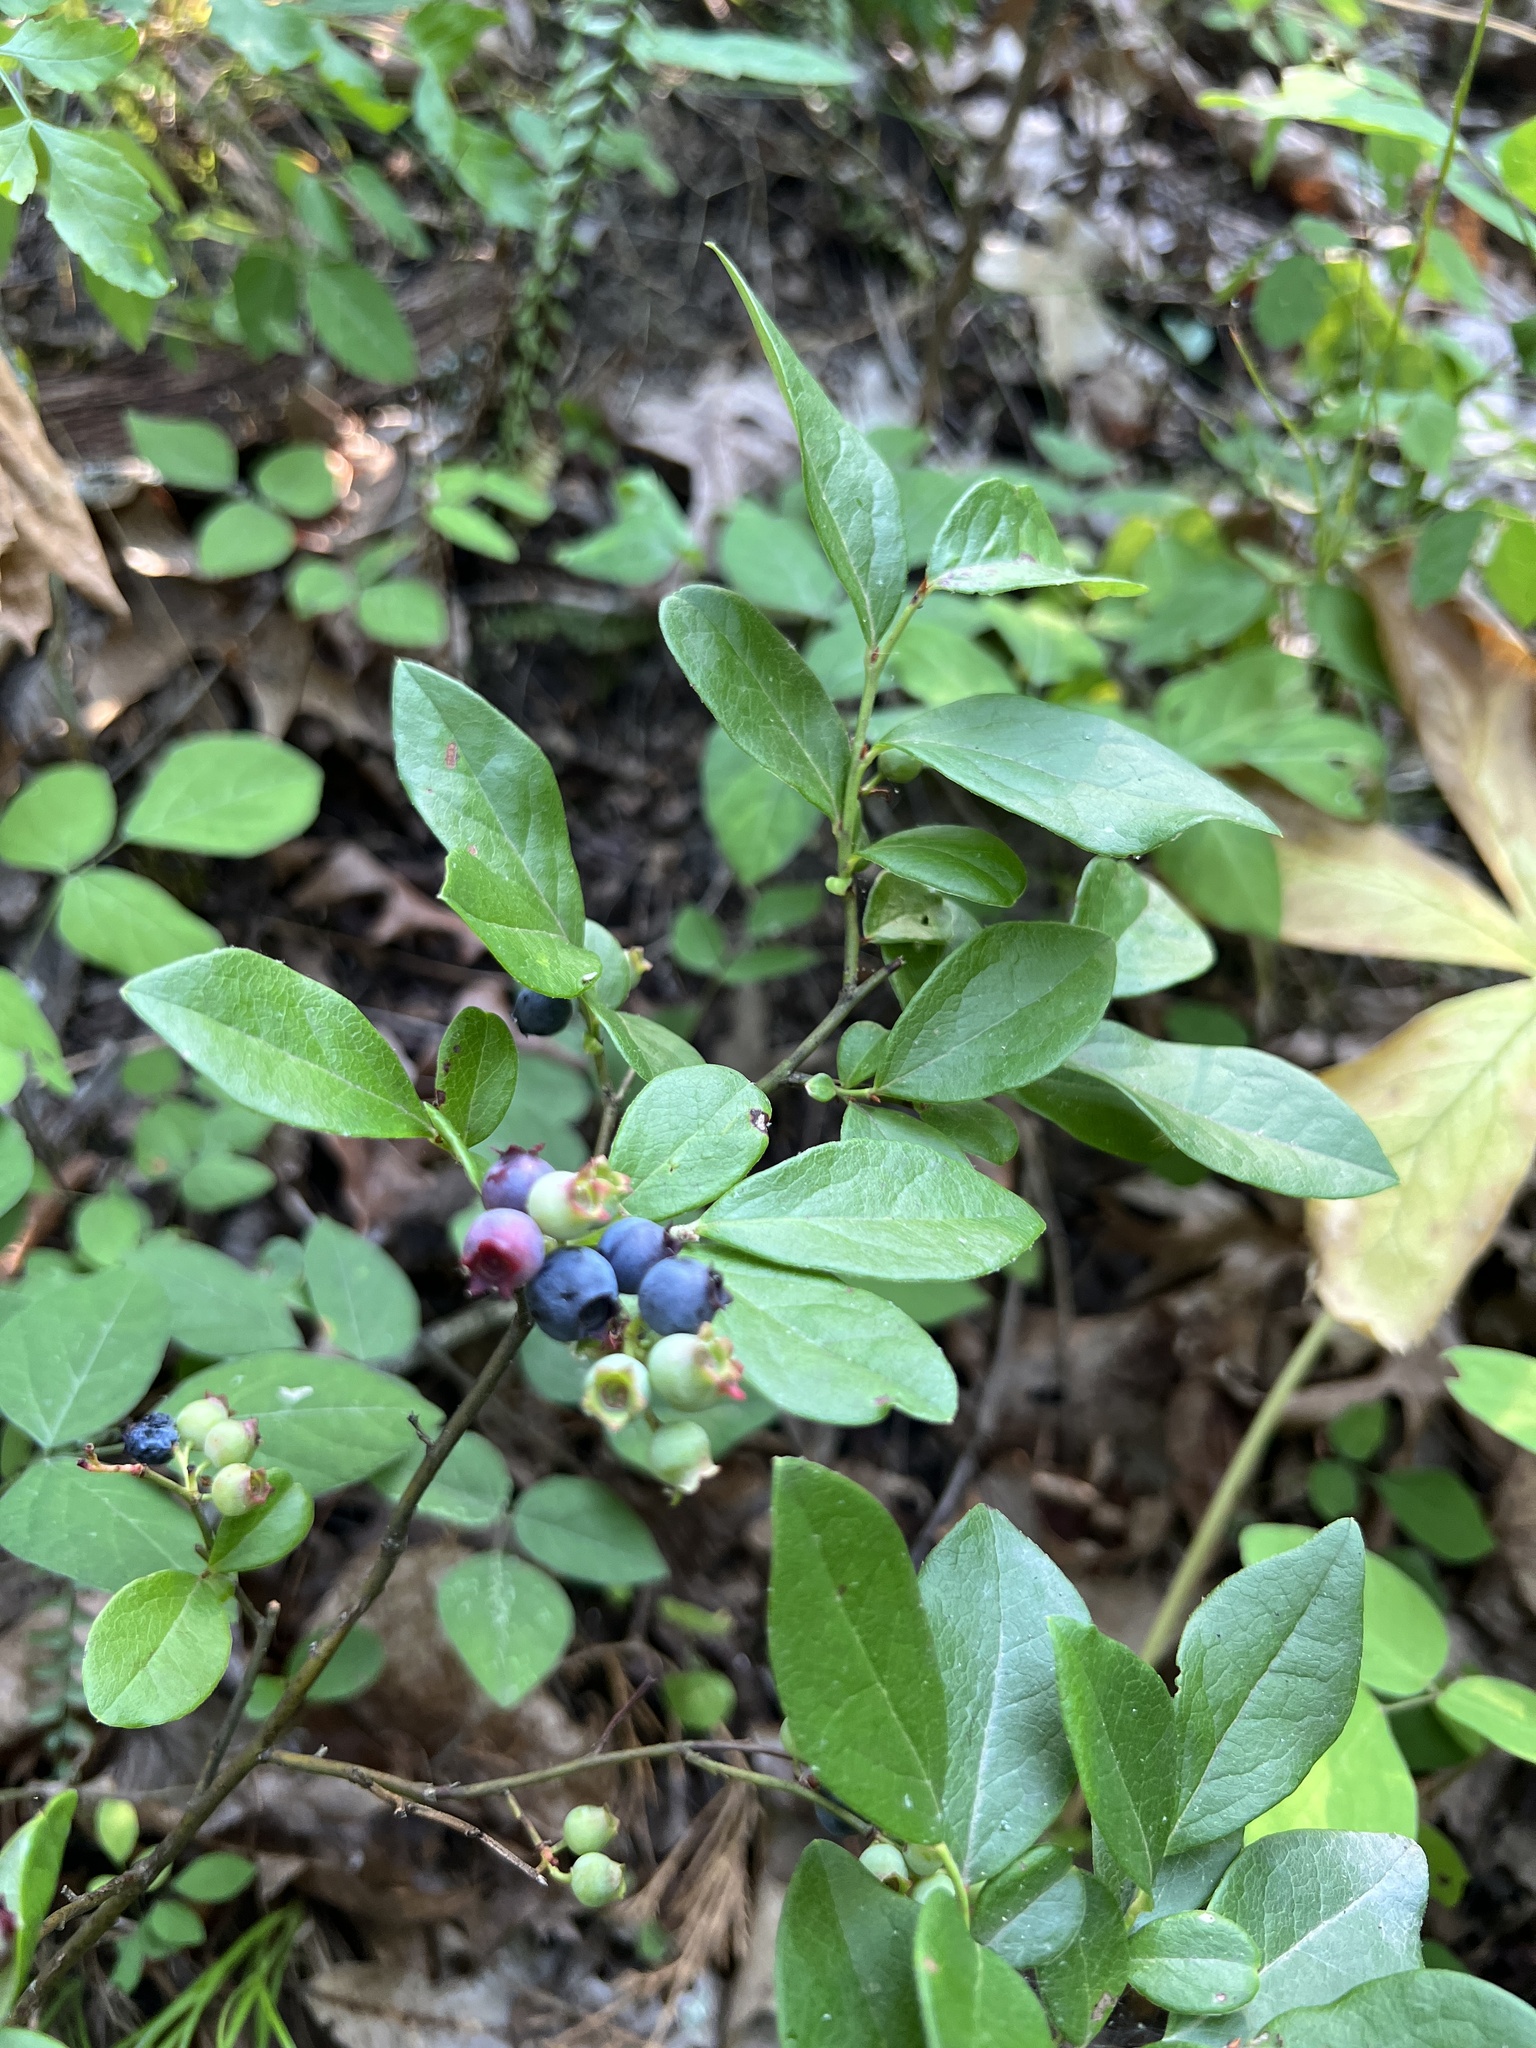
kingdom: Plantae
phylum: Tracheophyta
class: Magnoliopsida
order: Ericales
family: Ericaceae
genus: Vaccinium
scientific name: Vaccinium pallidum
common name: Blue ridge blueberry
